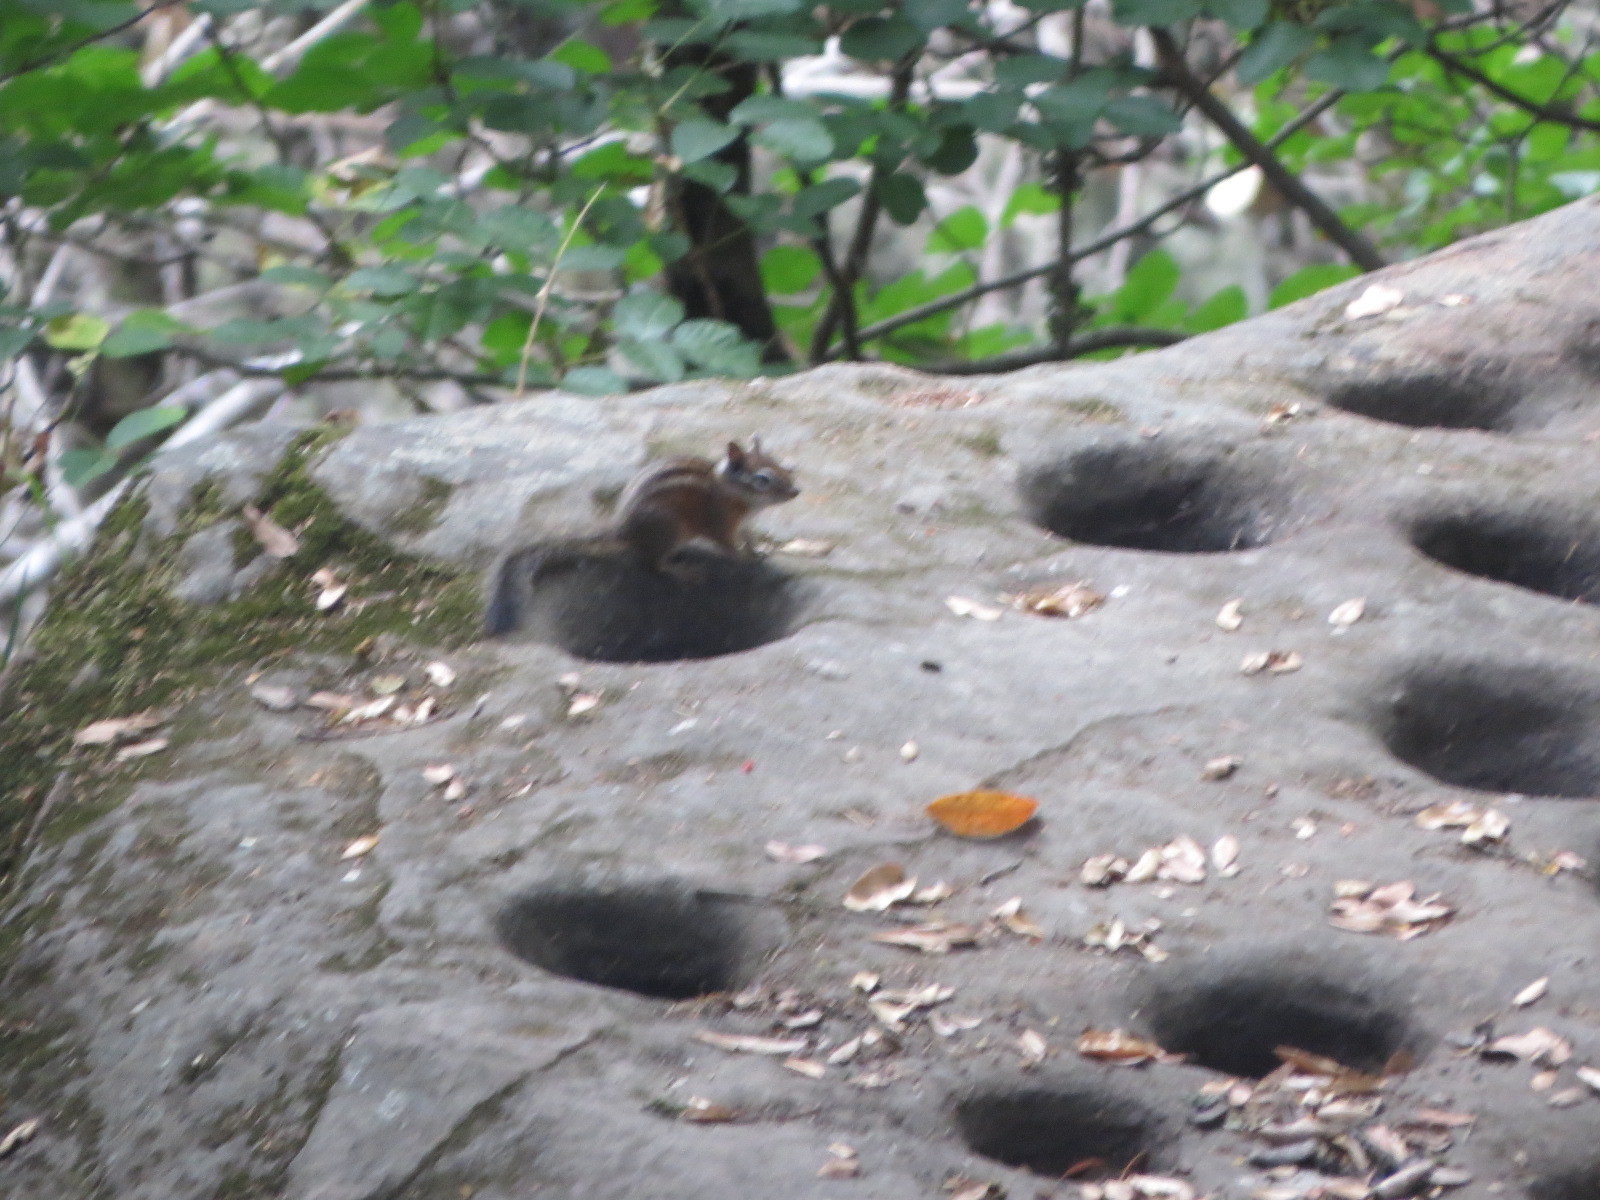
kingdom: Animalia
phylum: Chordata
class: Mammalia
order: Rodentia
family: Sciuridae
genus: Tamias
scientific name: Tamias merriami
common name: Merriam's chipmunk
